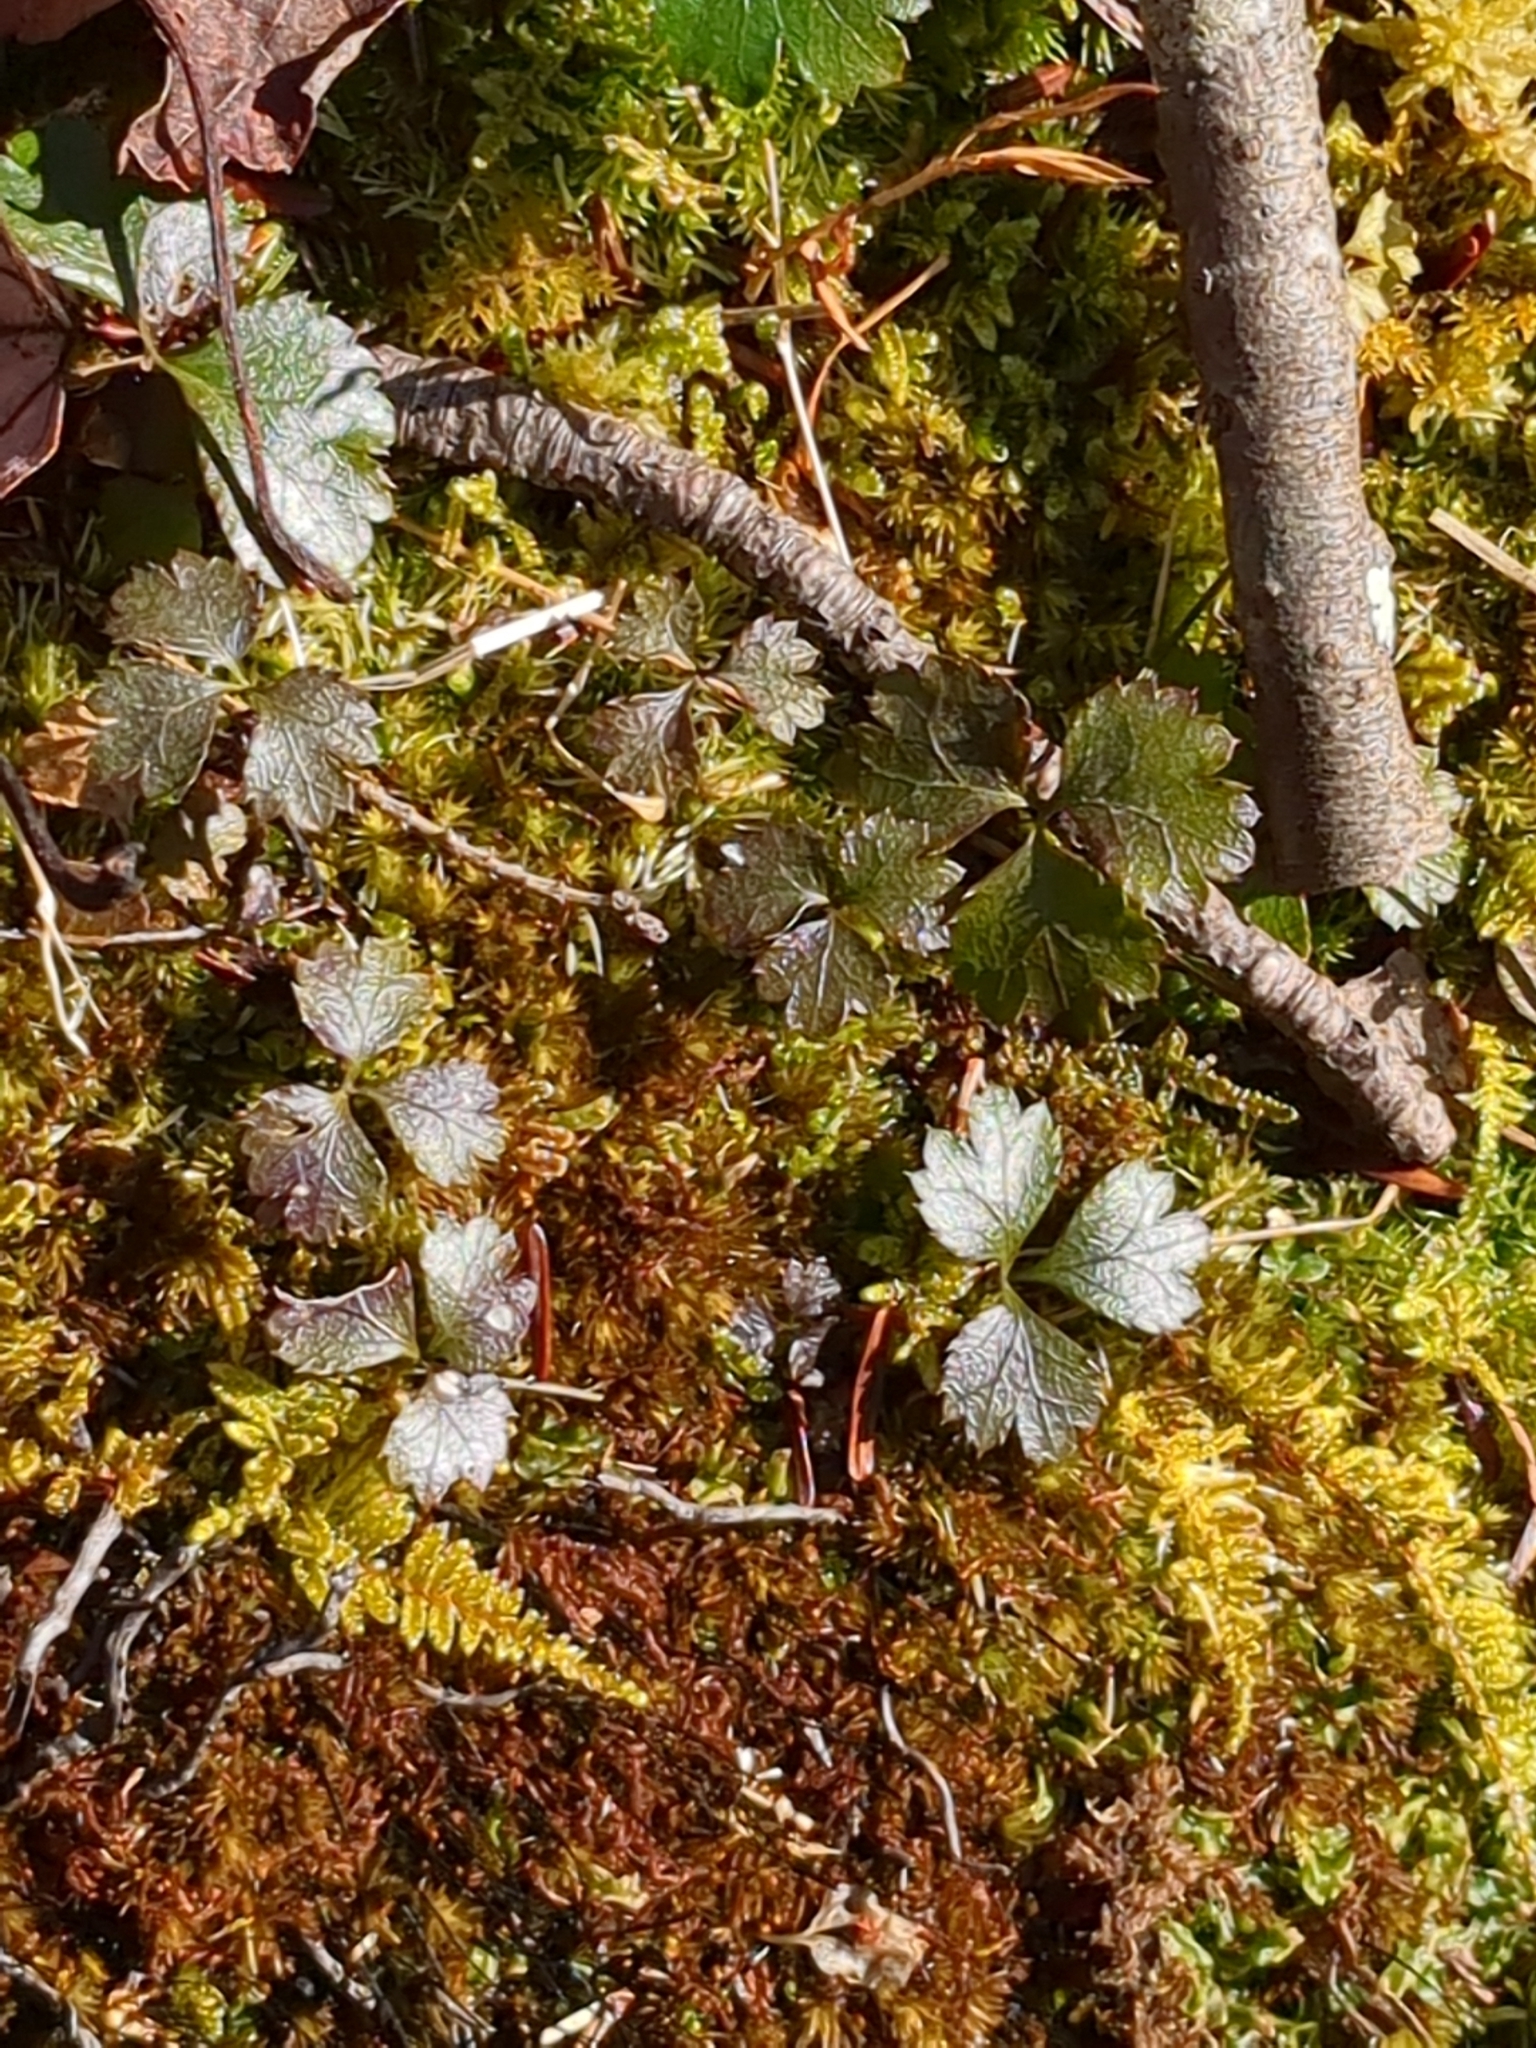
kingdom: Plantae
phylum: Tracheophyta
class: Magnoliopsida
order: Ranunculales
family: Ranunculaceae
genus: Coptis
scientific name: Coptis trifolia
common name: Canker-root
